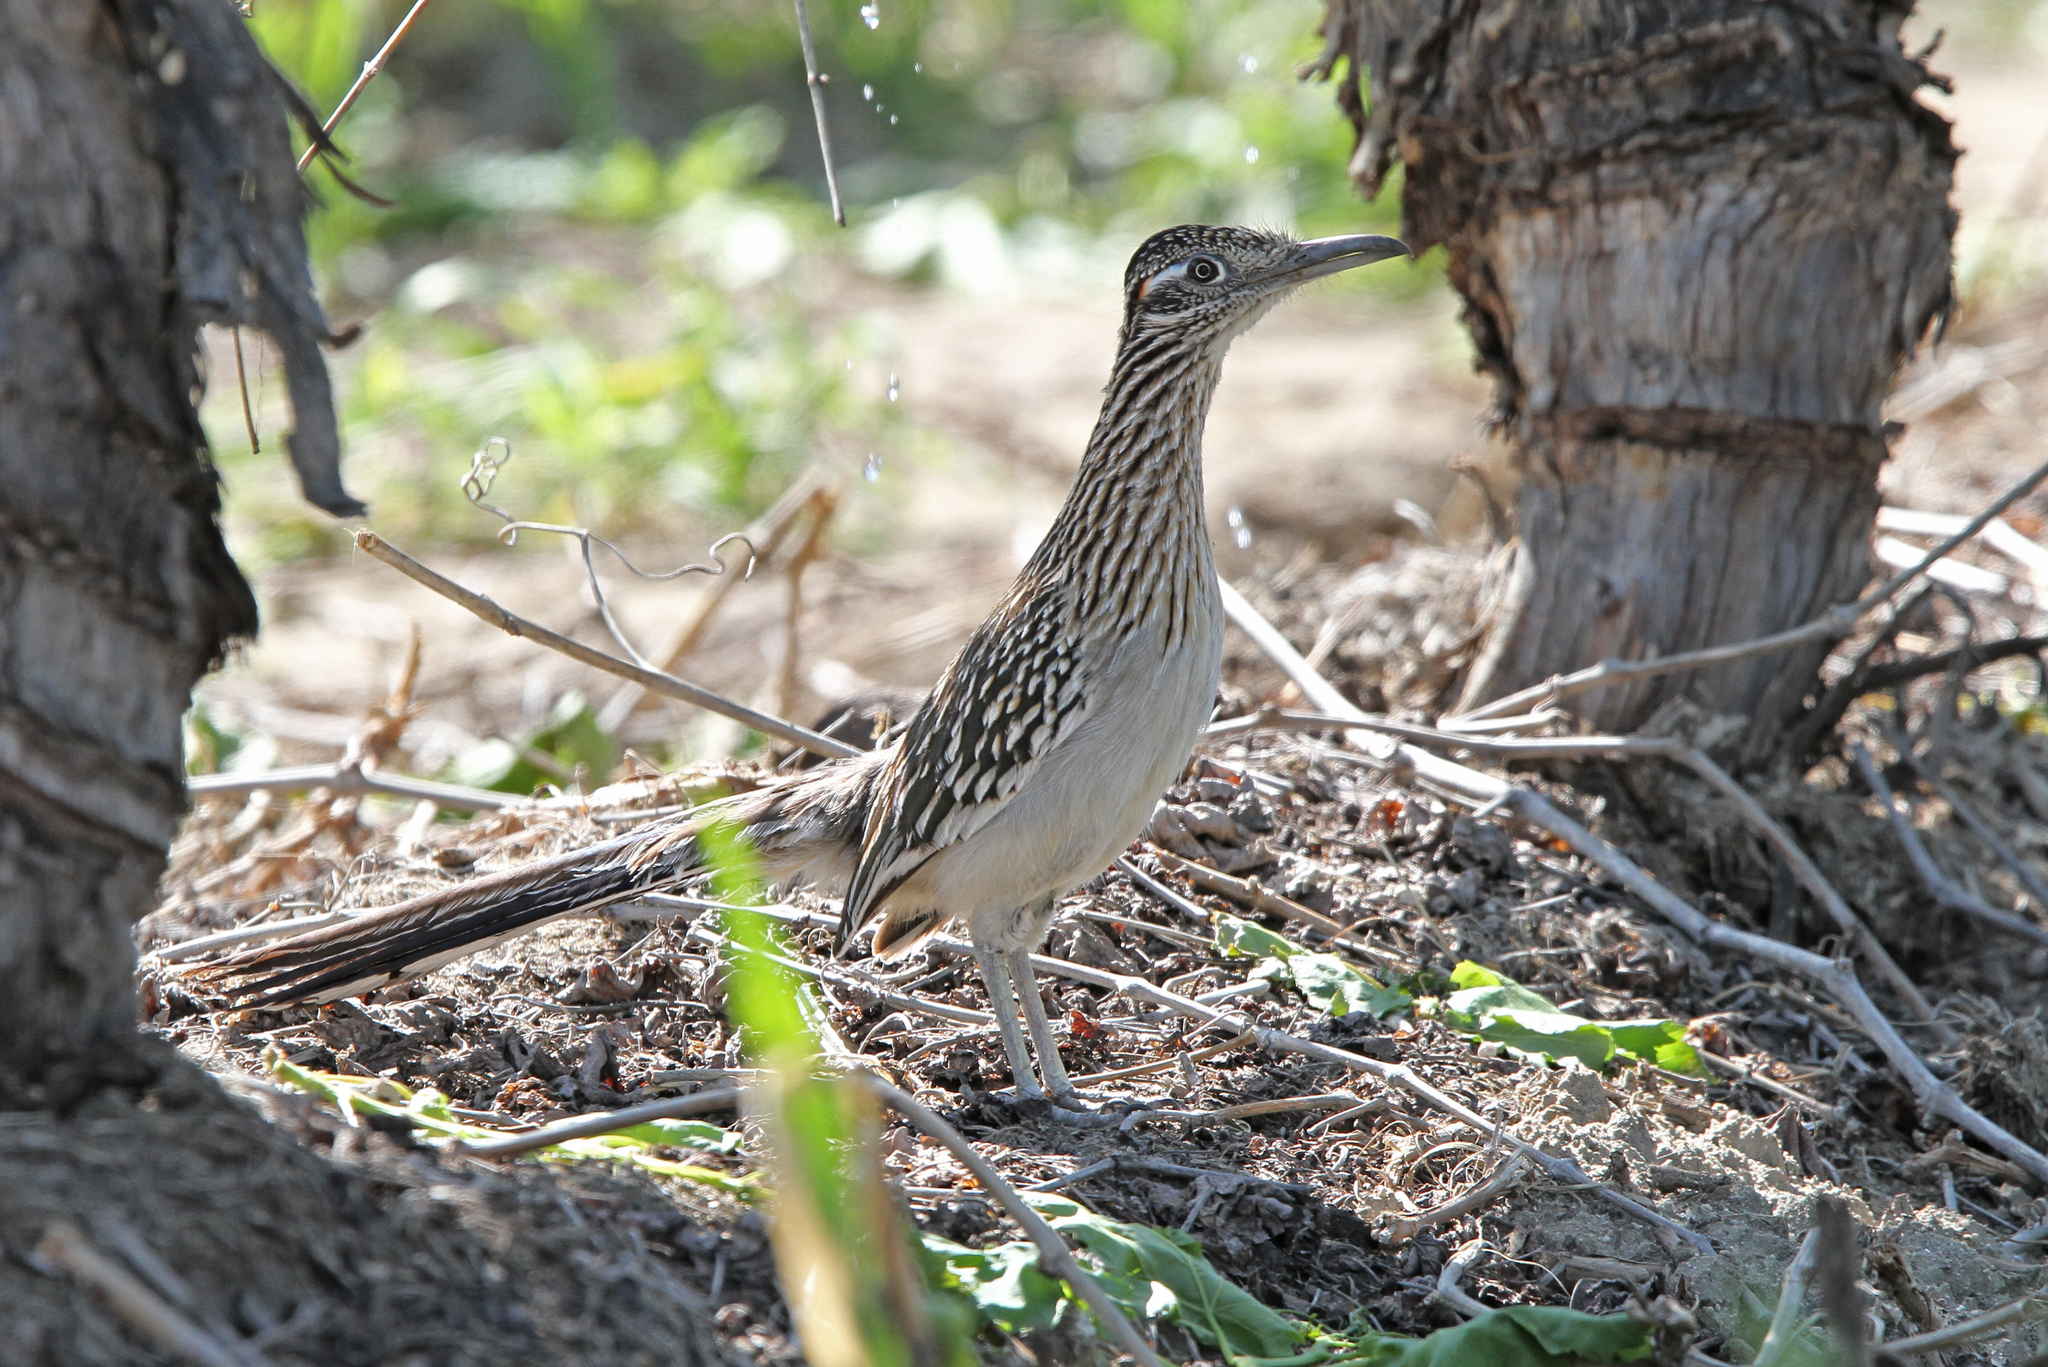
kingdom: Animalia
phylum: Chordata
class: Aves
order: Cuculiformes
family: Cuculidae
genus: Geococcyx
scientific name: Geococcyx californianus
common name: Greater roadrunner
